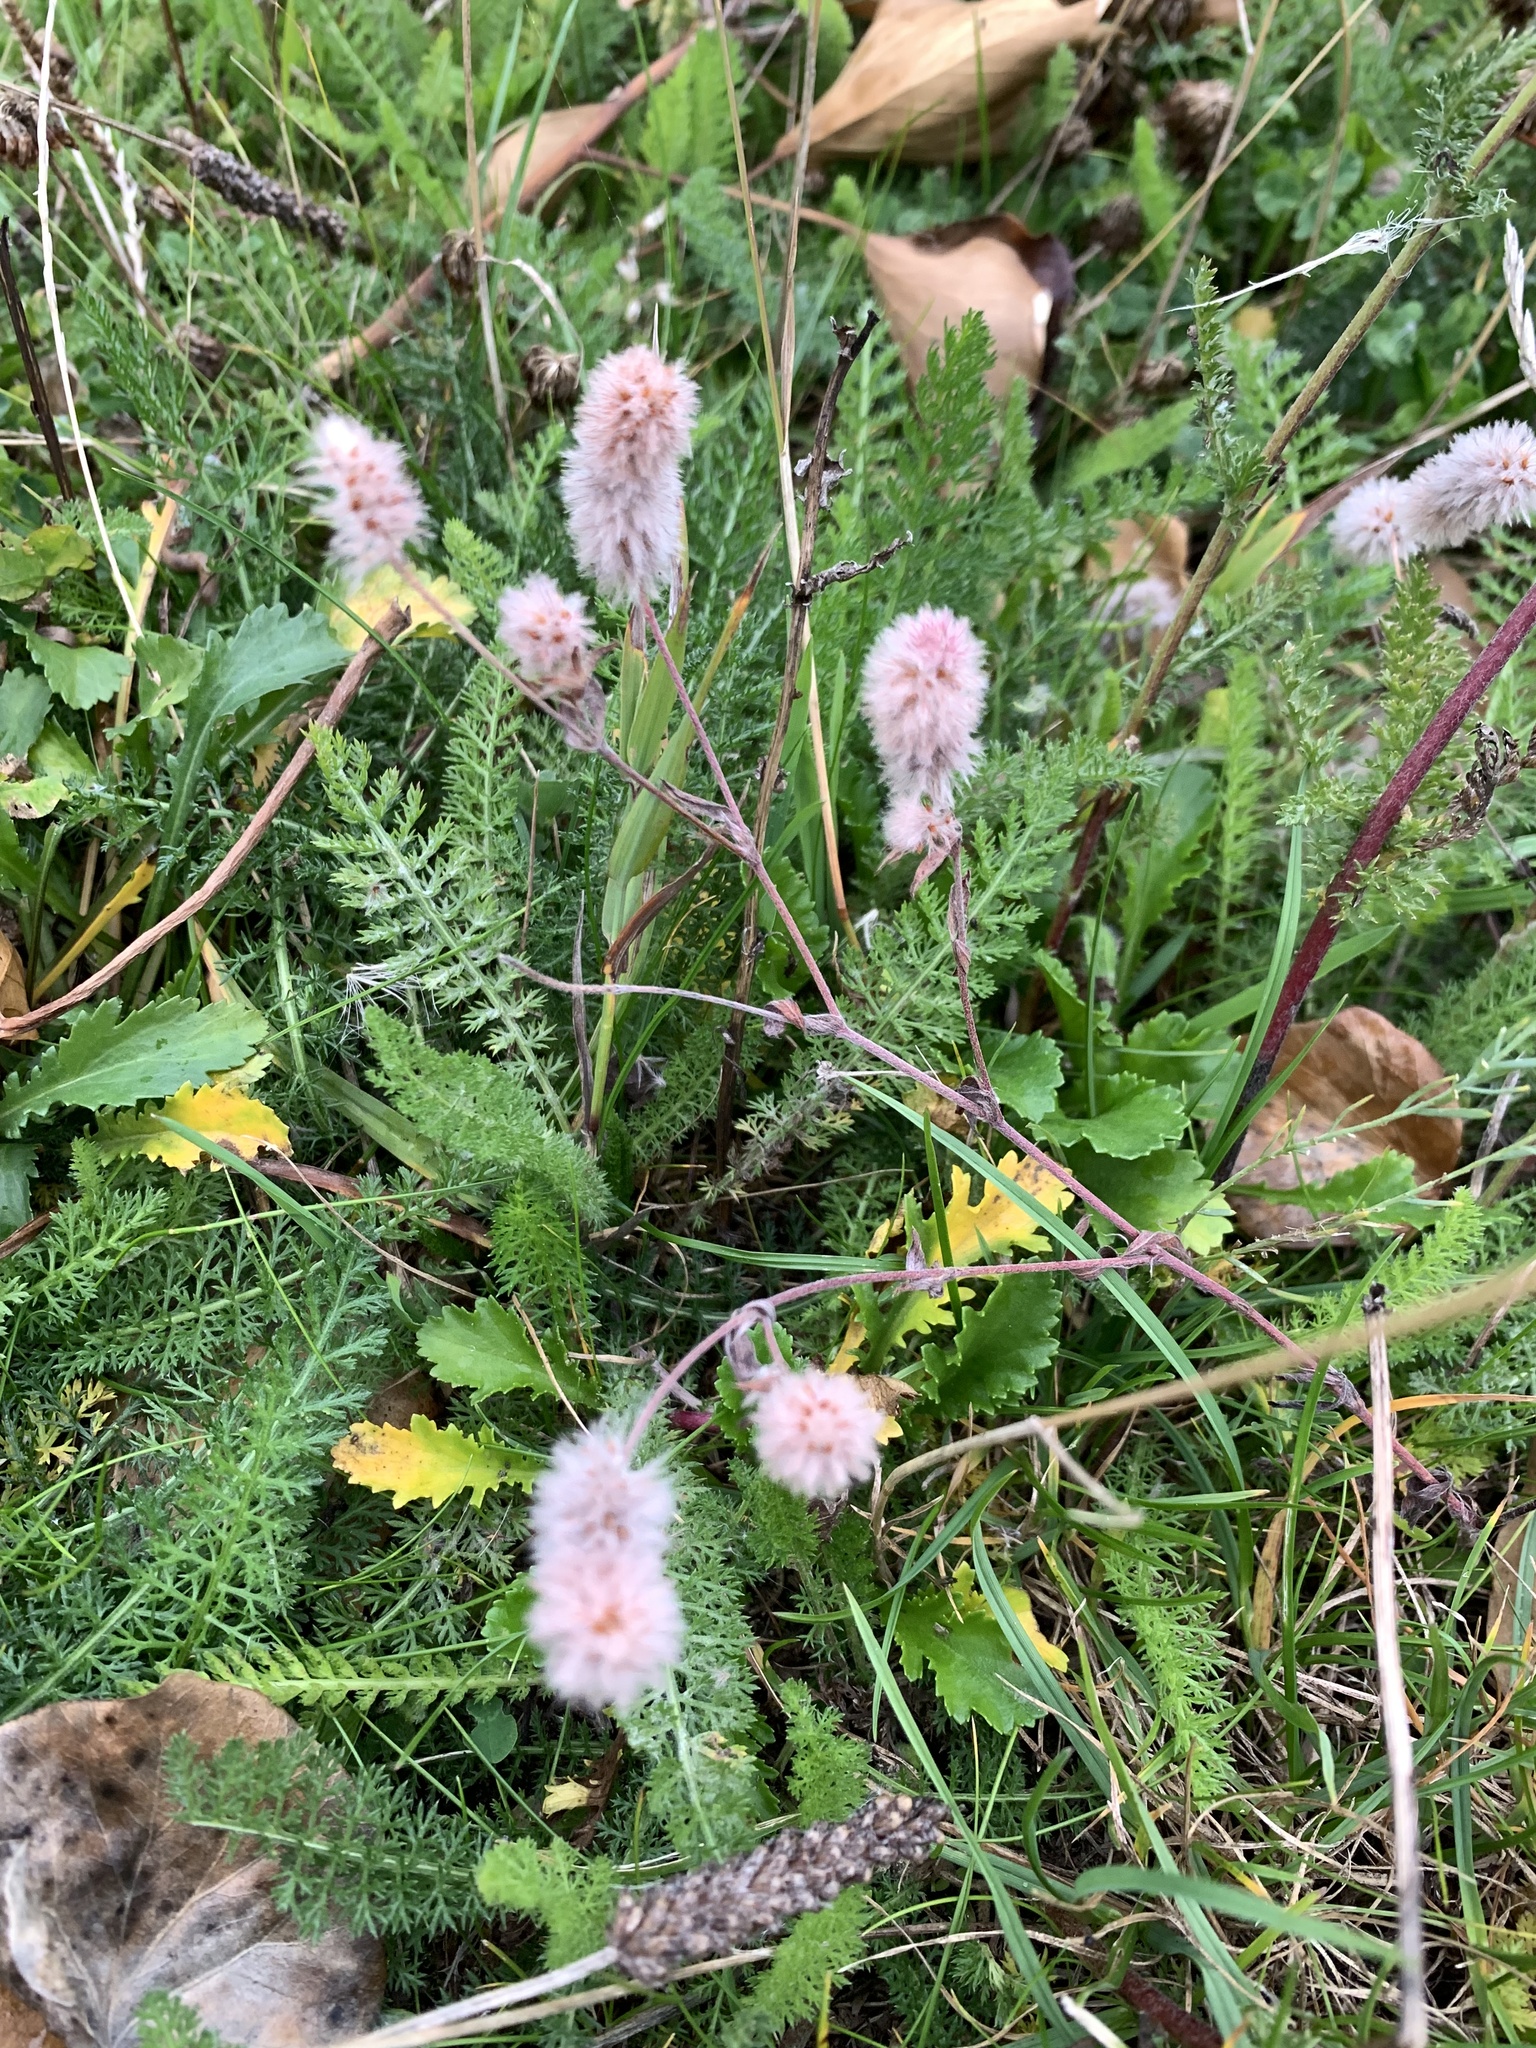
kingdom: Plantae
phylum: Tracheophyta
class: Magnoliopsida
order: Fabales
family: Fabaceae
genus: Trifolium
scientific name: Trifolium arvense
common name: Hare's-foot clover
